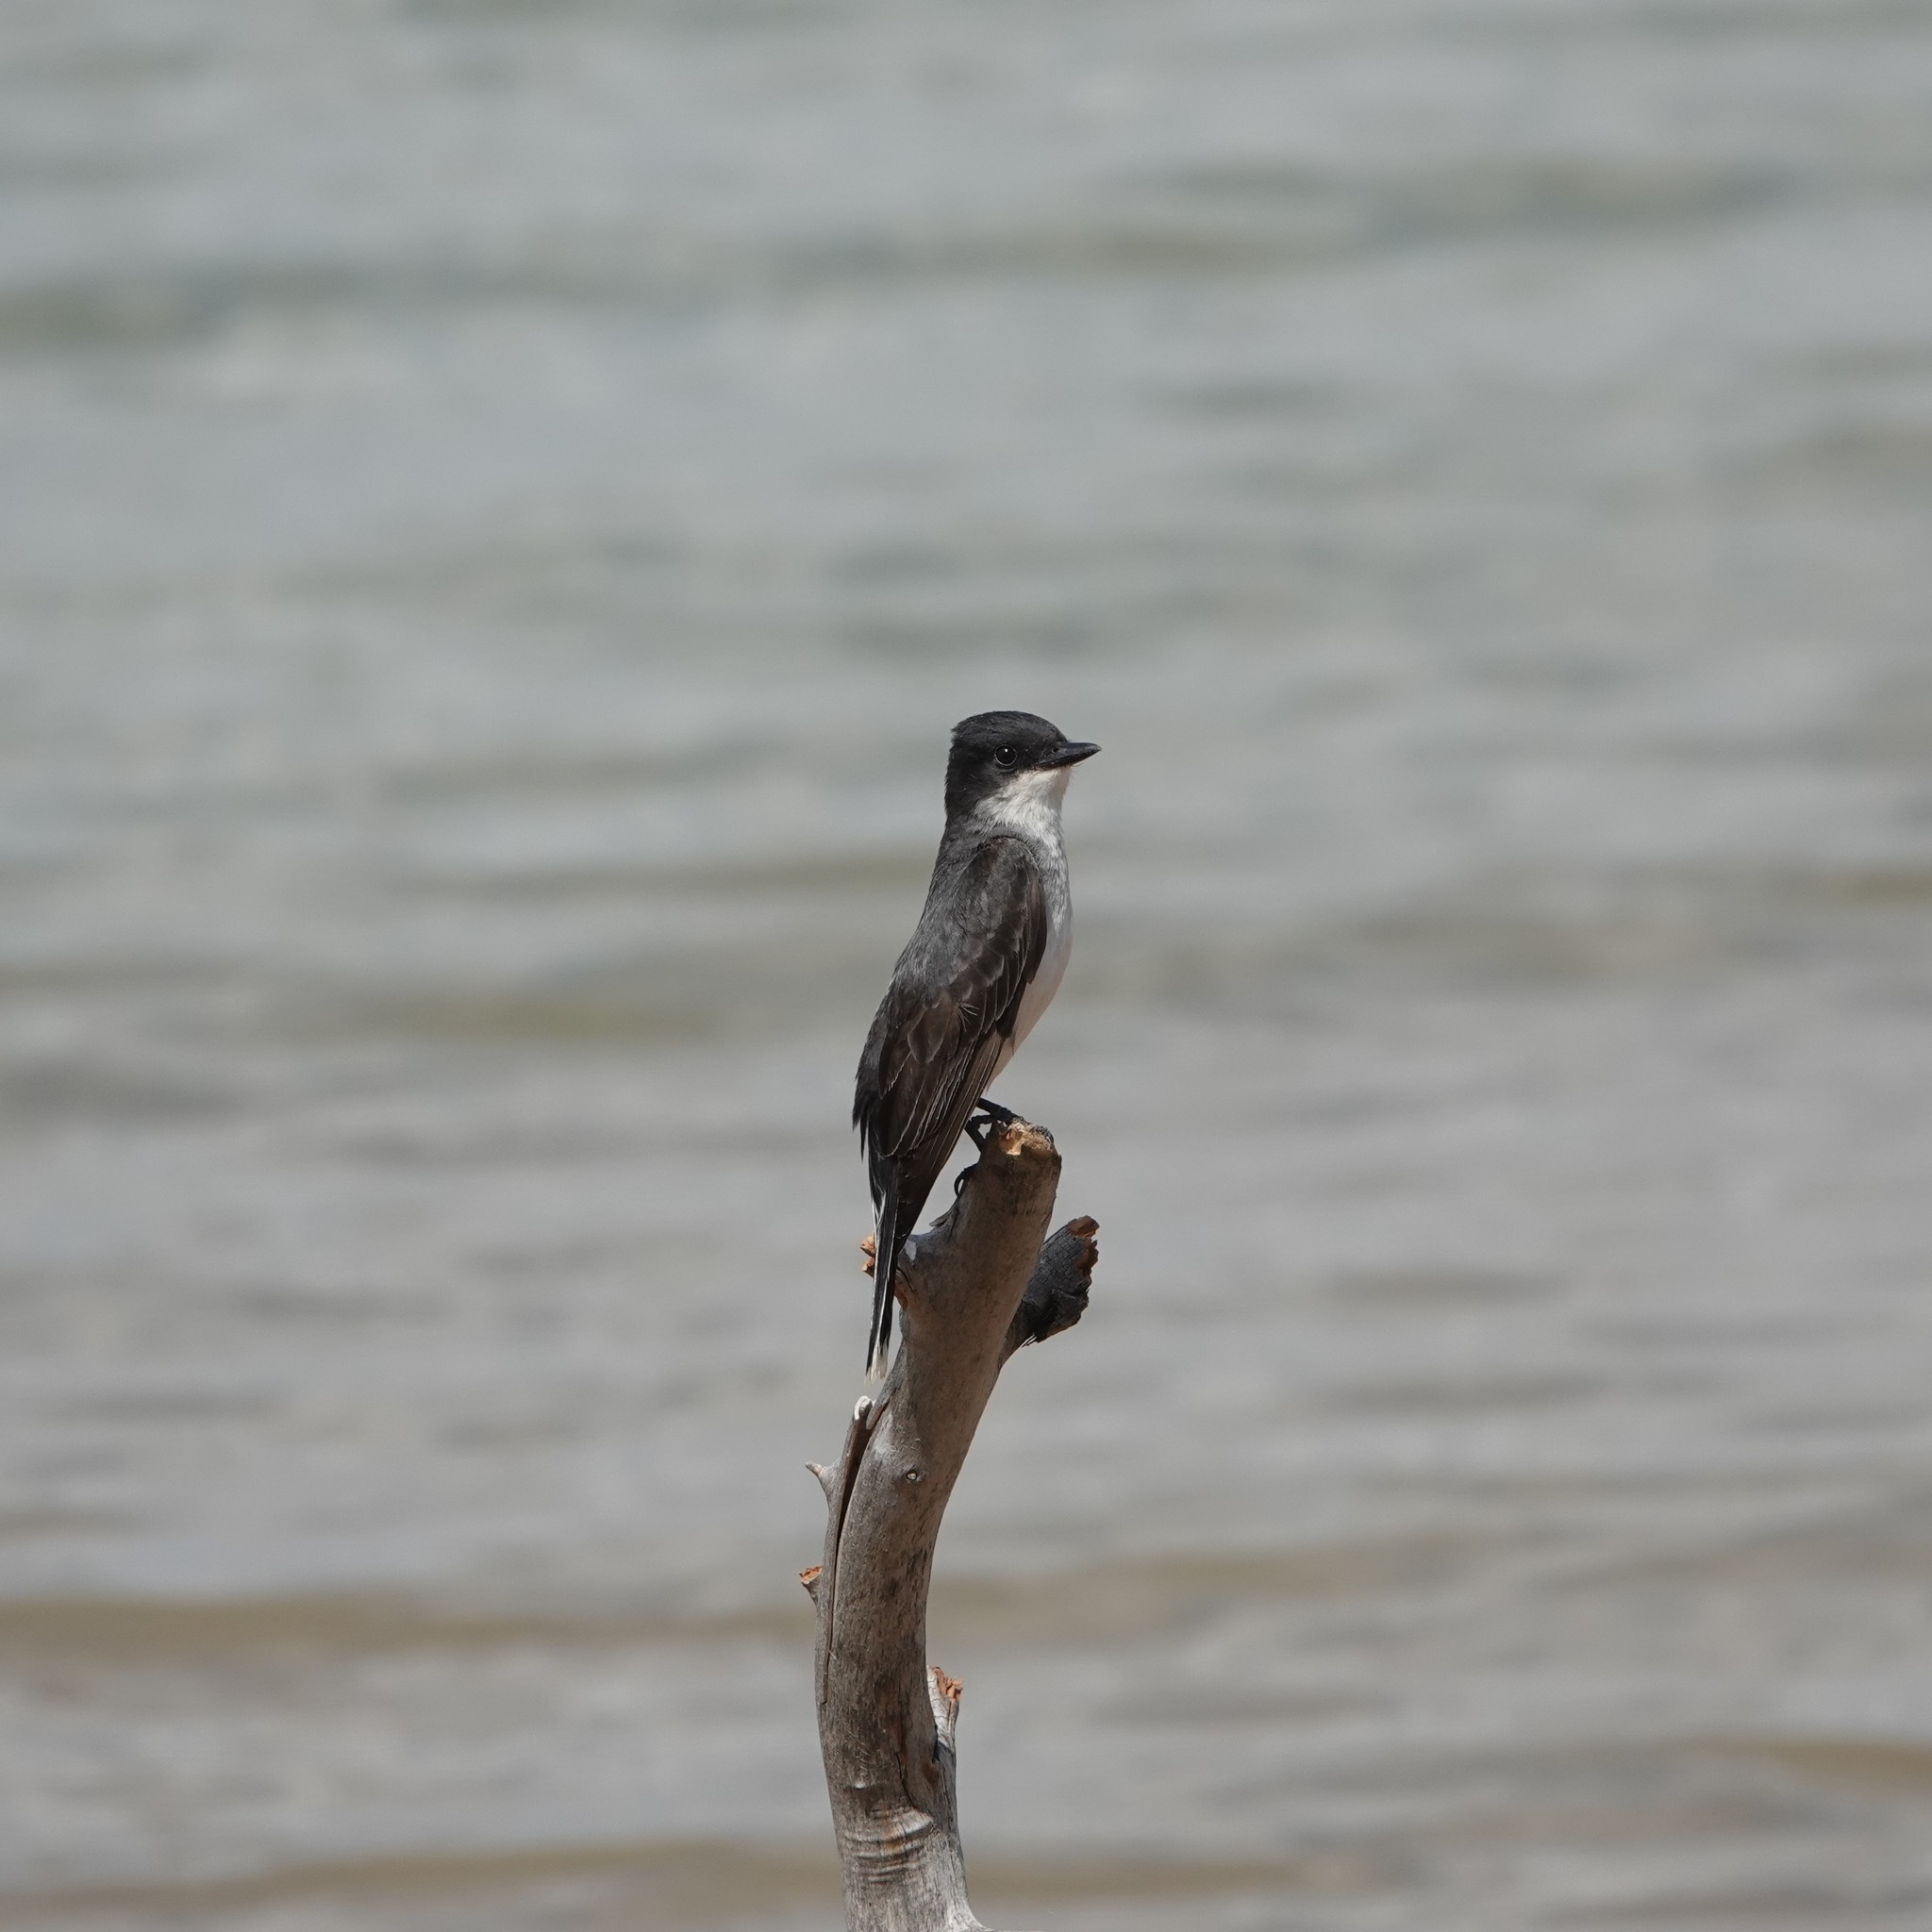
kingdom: Animalia
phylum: Chordata
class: Aves
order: Passeriformes
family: Tyrannidae
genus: Tyrannus
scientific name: Tyrannus tyrannus
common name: Eastern kingbird
